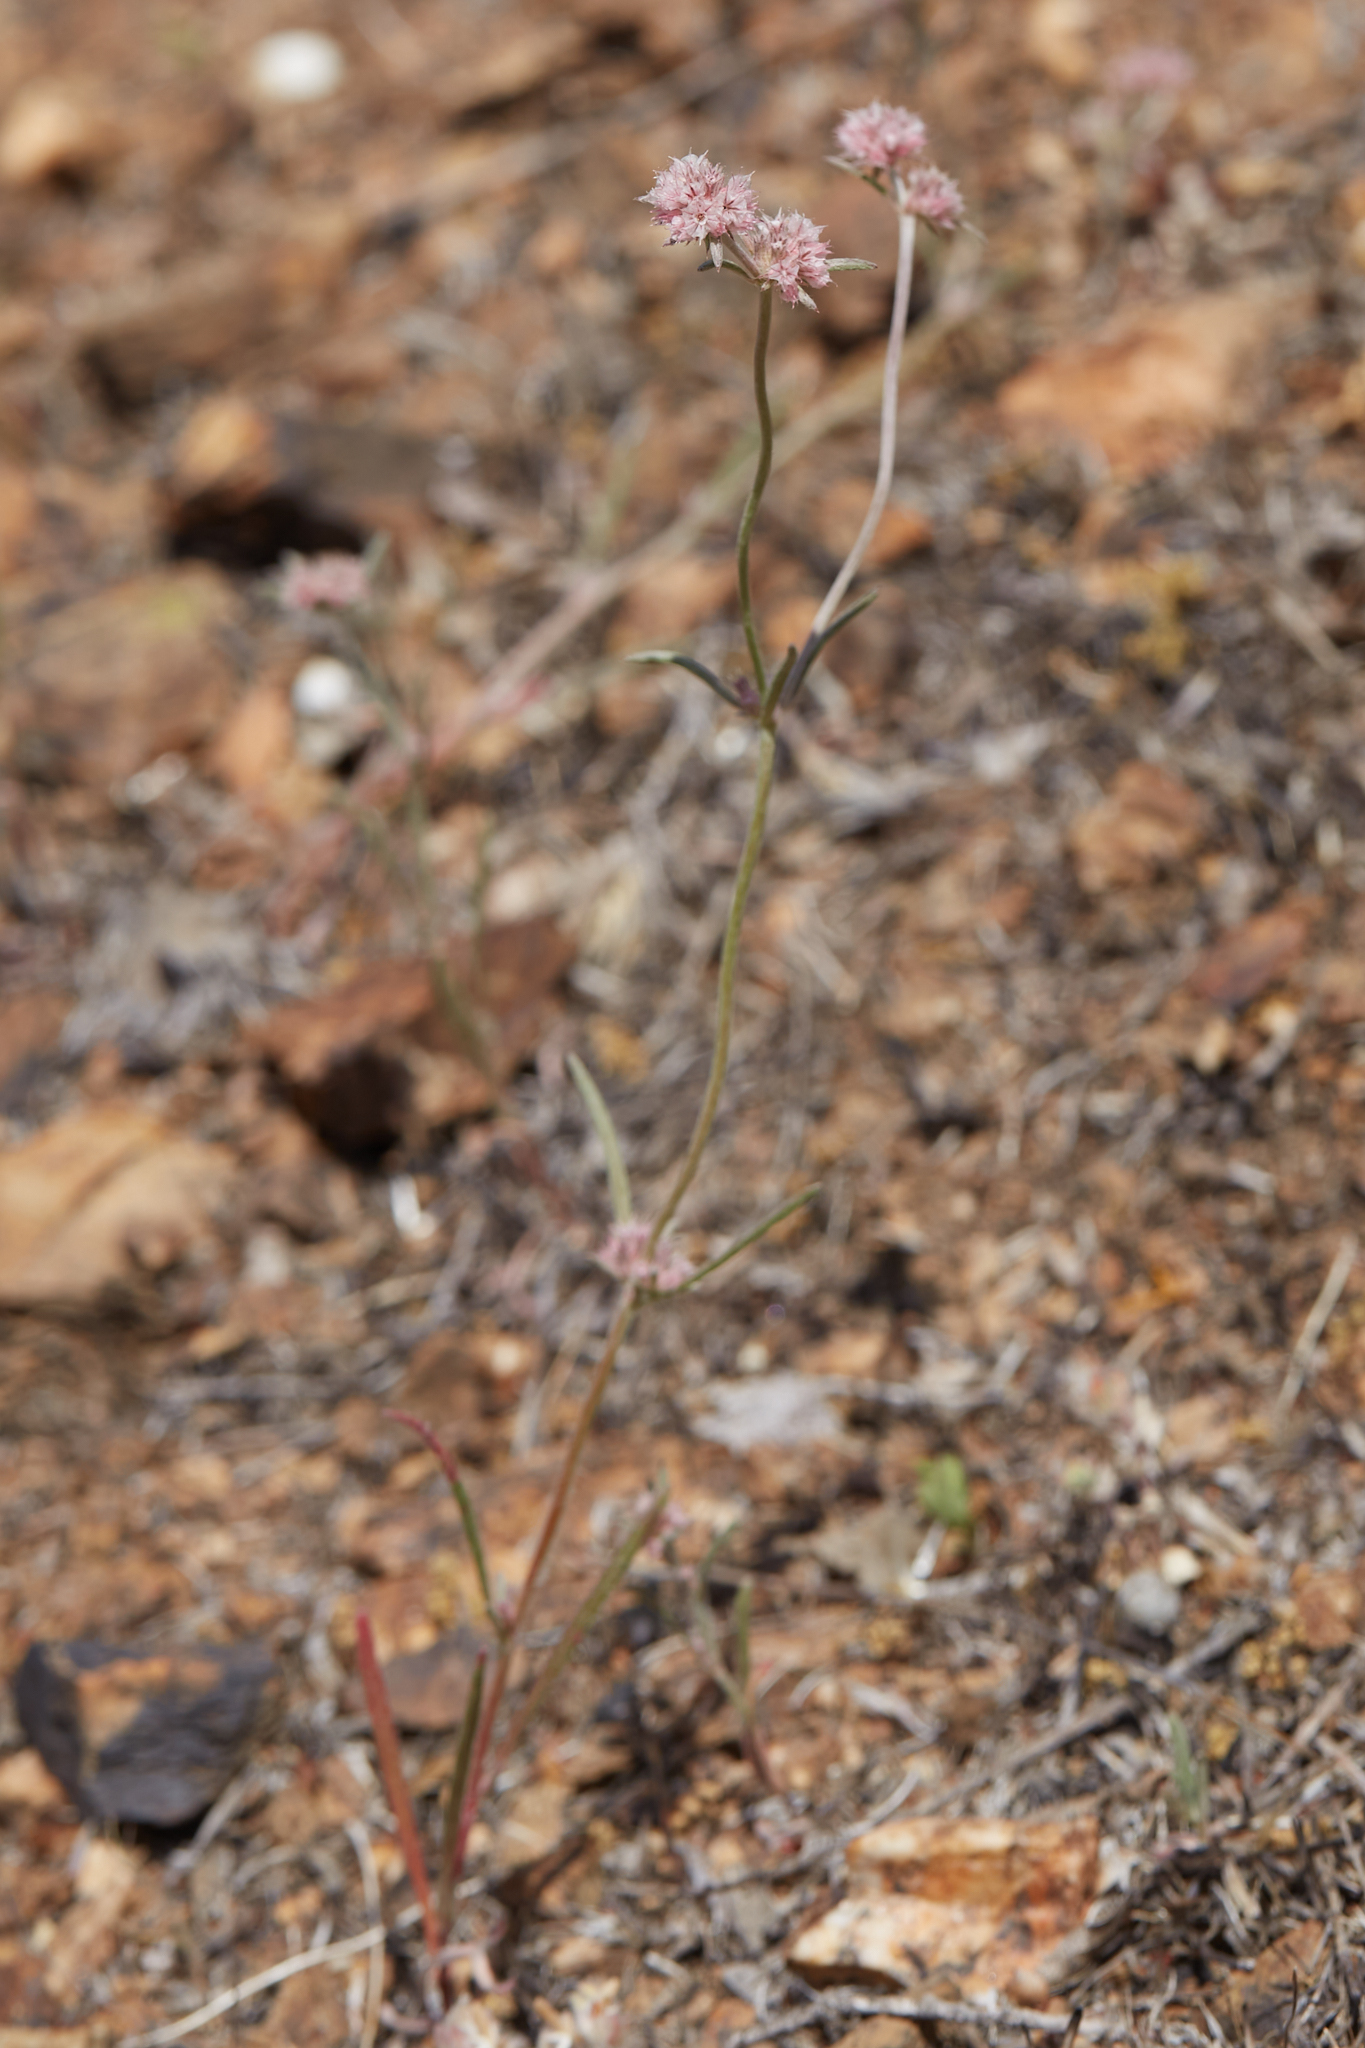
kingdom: Plantae
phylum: Tracheophyta
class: Magnoliopsida
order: Caryophyllales
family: Polygonaceae
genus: Chorizanthe
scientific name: Chorizanthe membranacea
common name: Pink spineflower
